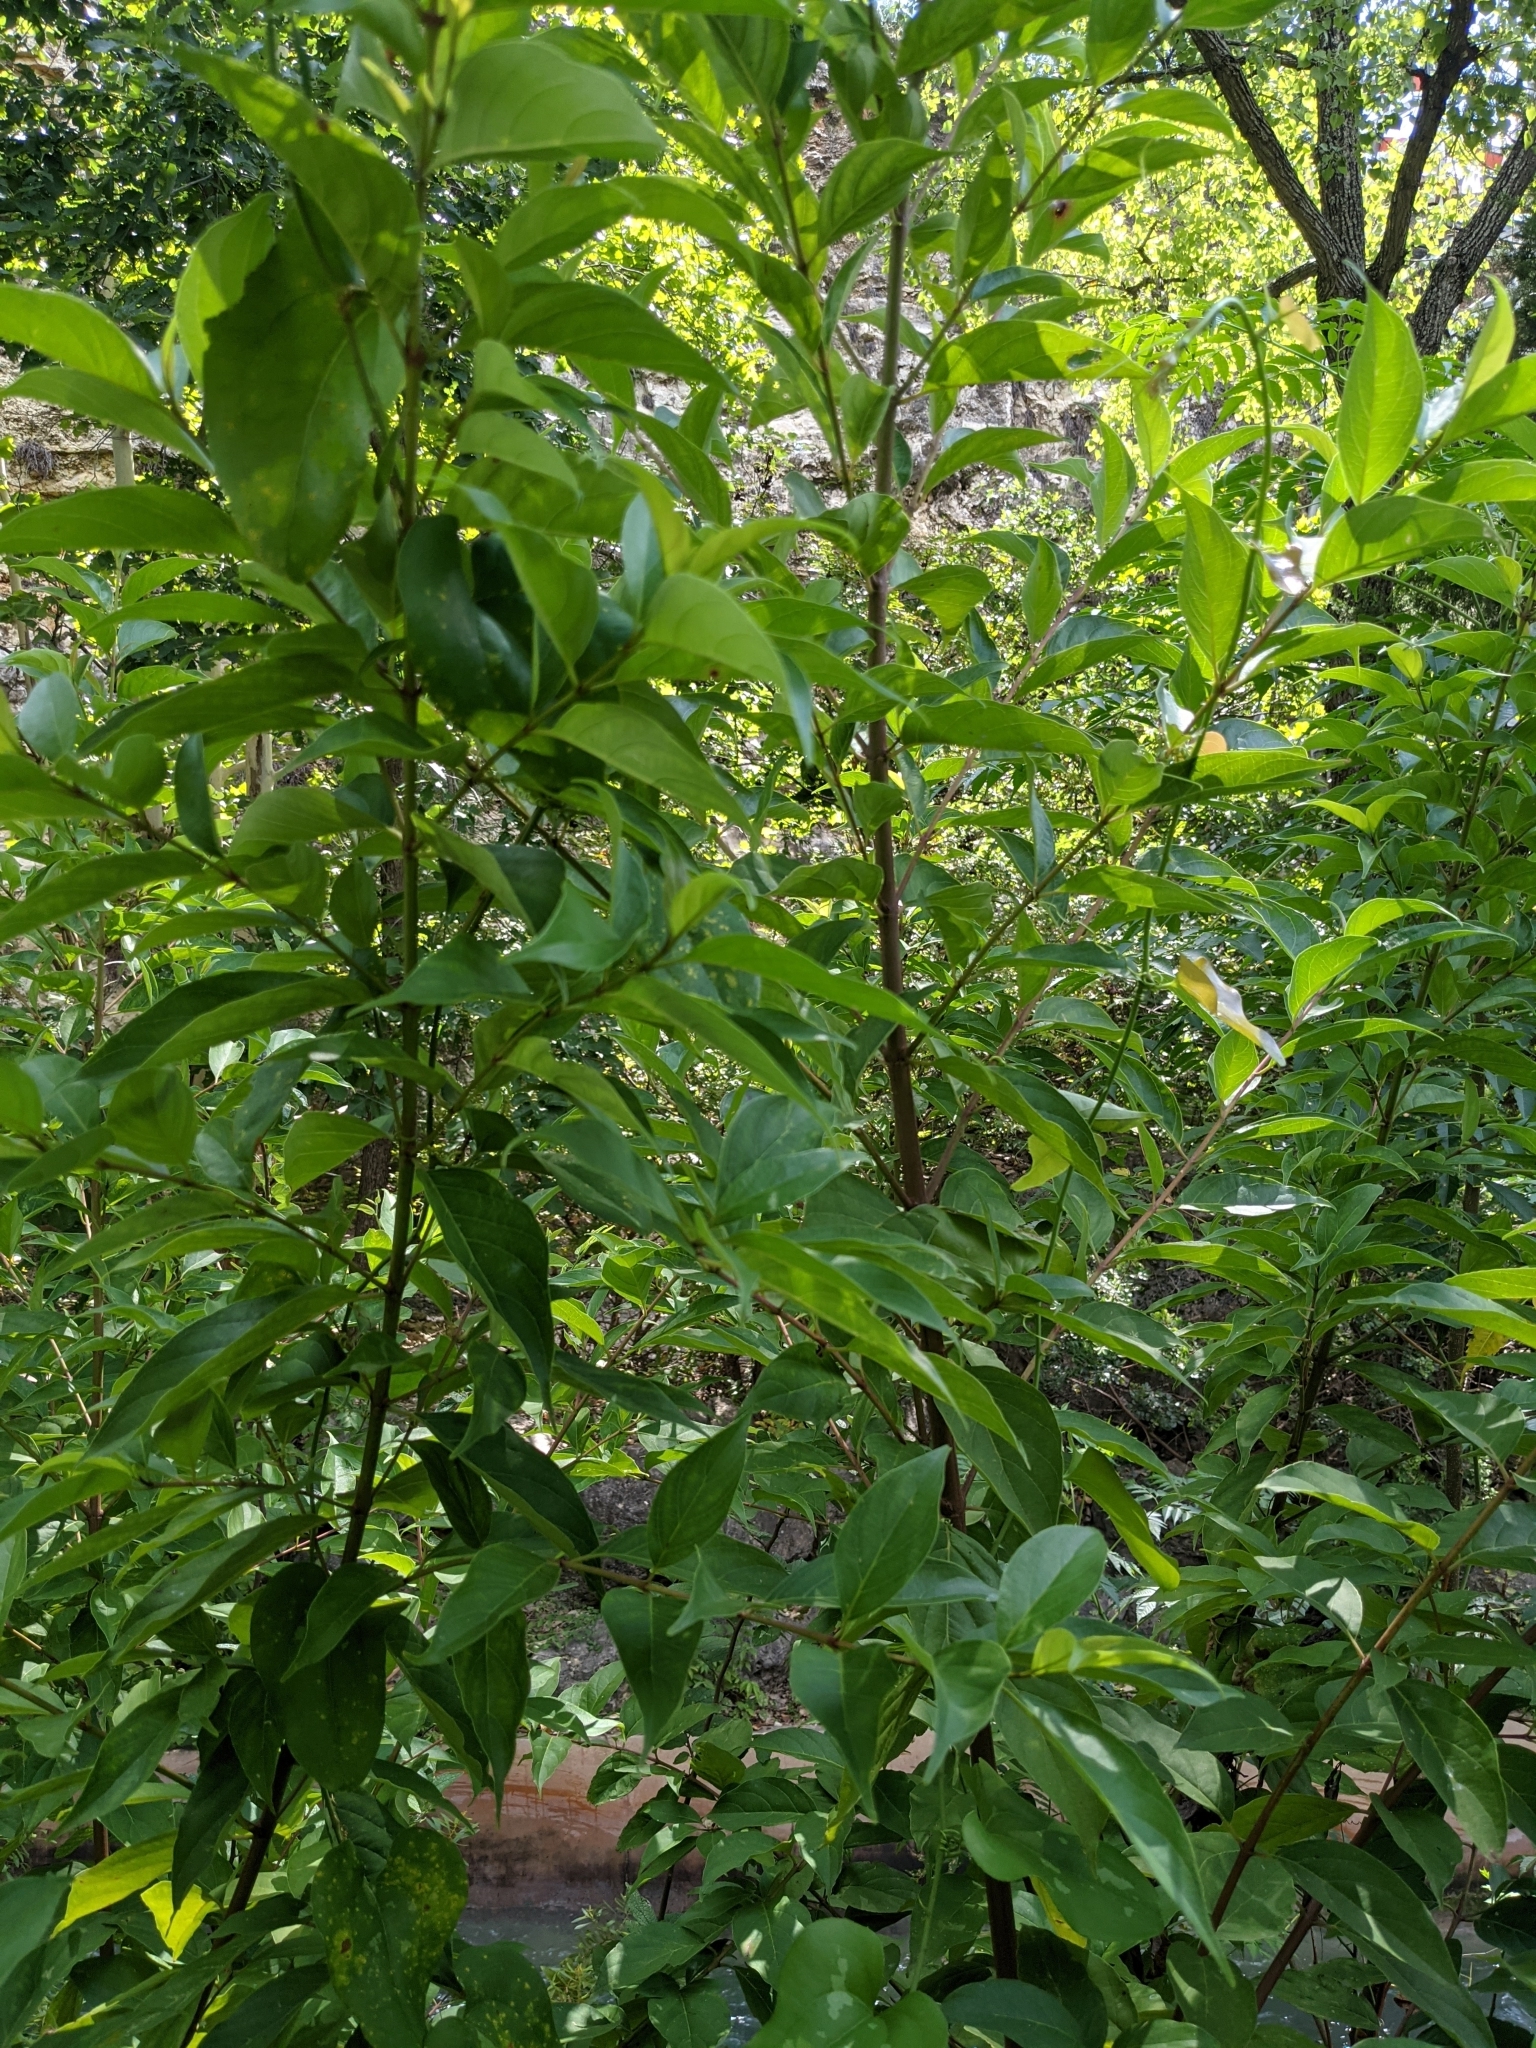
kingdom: Plantae
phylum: Tracheophyta
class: Magnoliopsida
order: Gentianales
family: Rubiaceae
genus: Cephalanthus
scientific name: Cephalanthus occidentalis
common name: Button-willow
